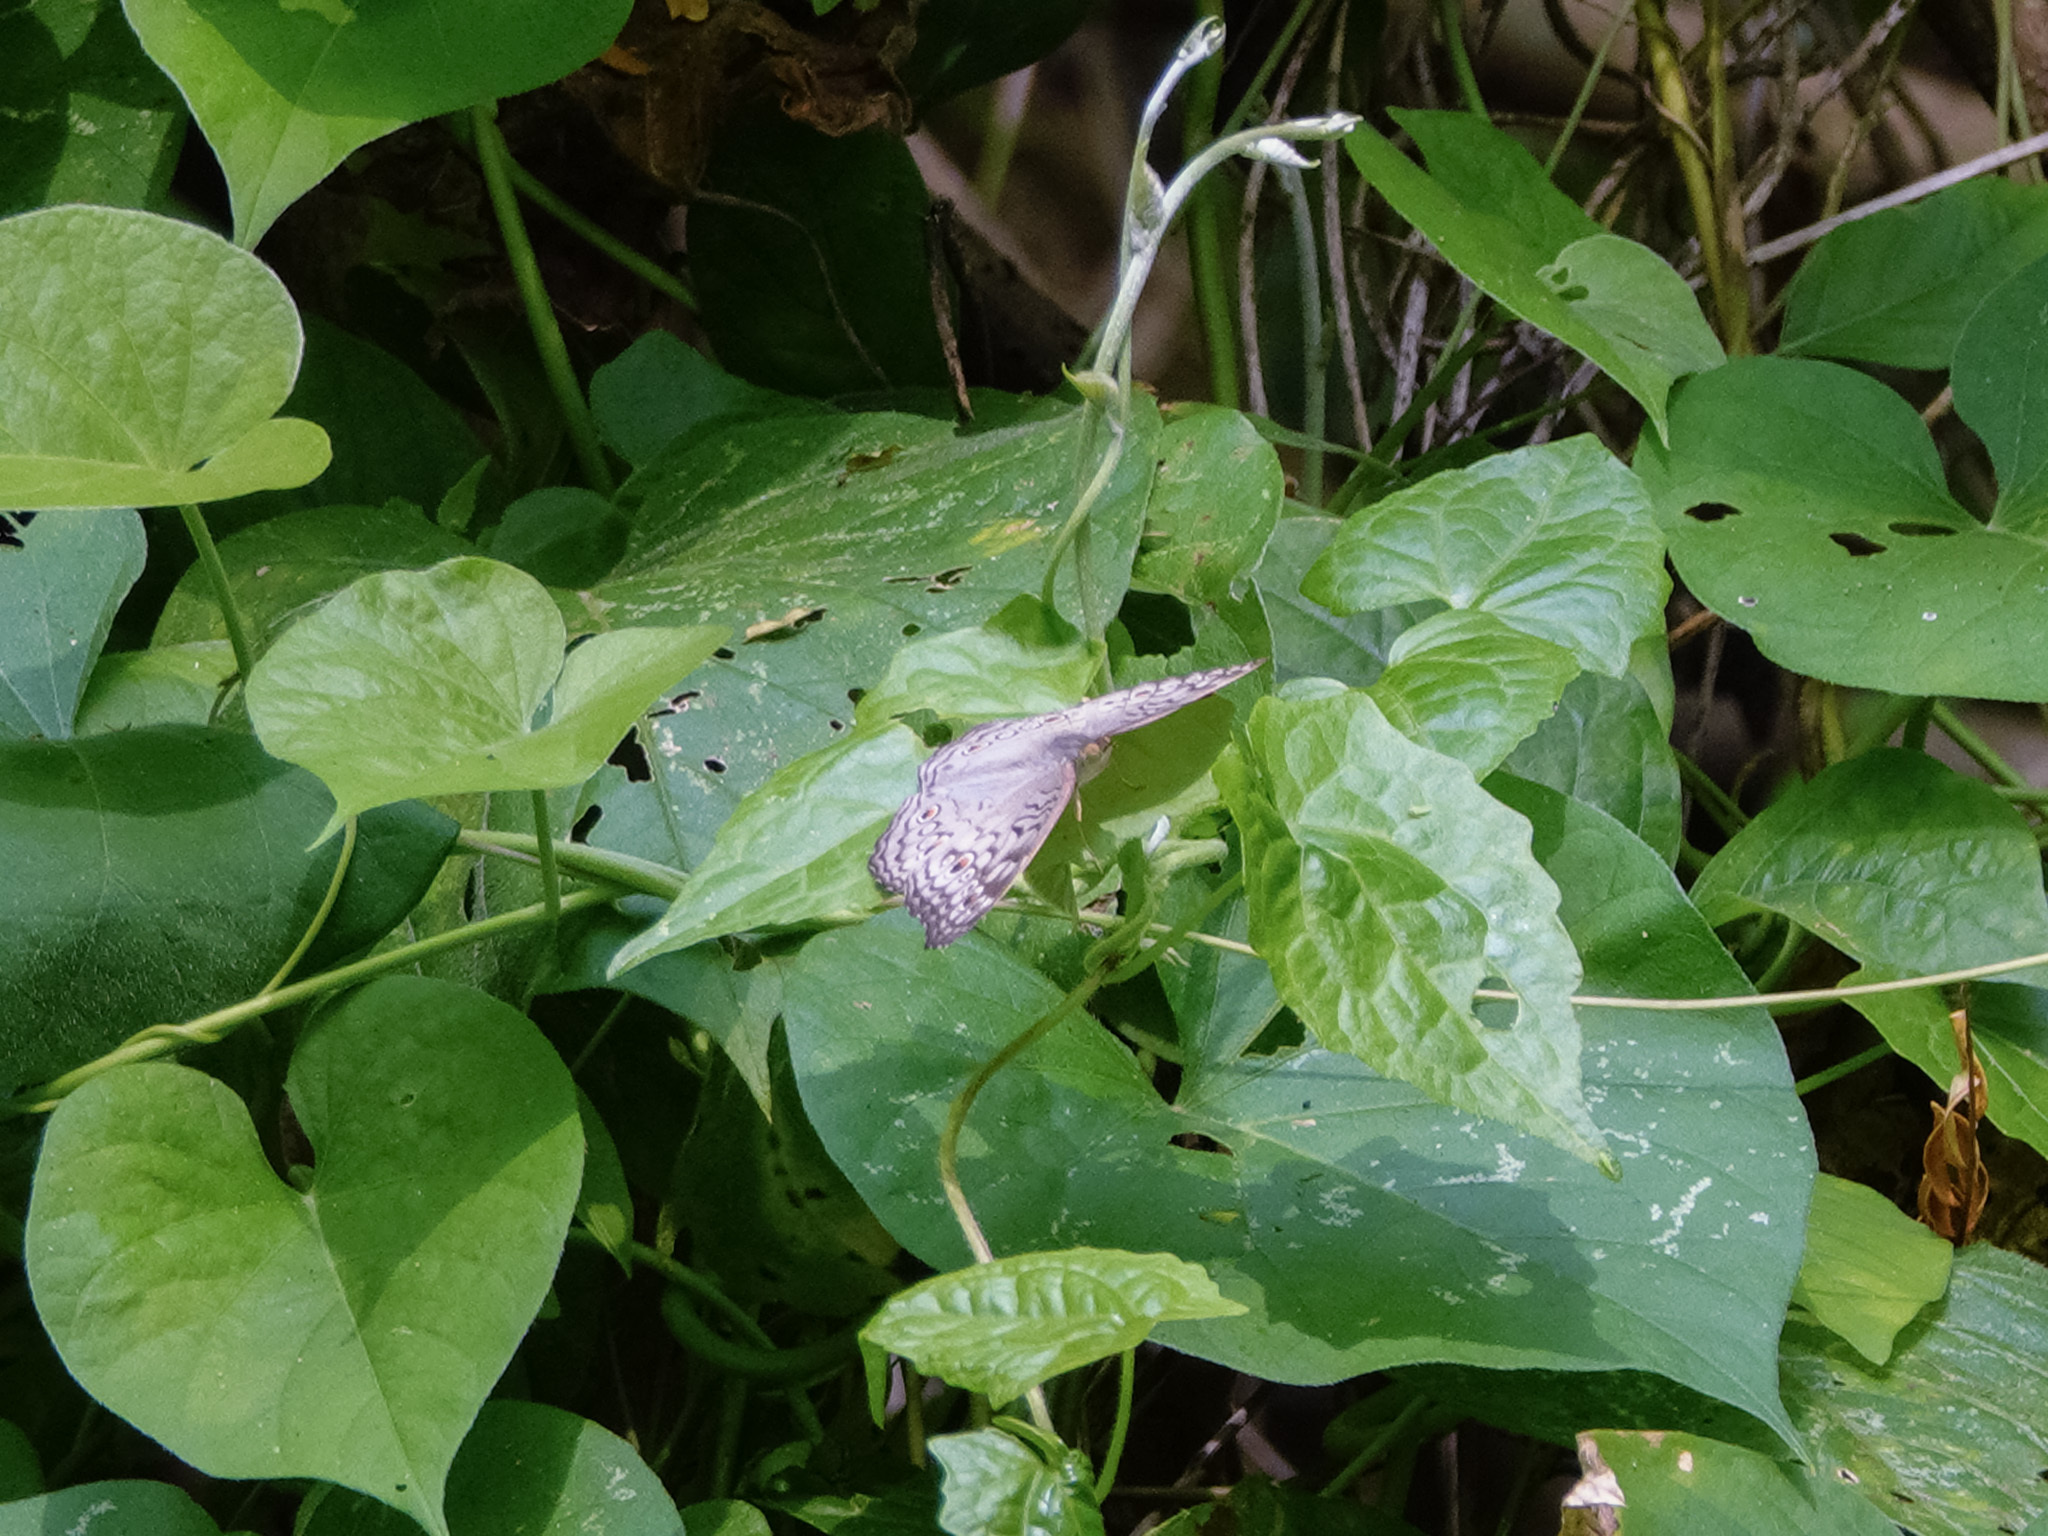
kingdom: Animalia
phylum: Arthropoda
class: Insecta
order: Lepidoptera
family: Nymphalidae
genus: Junonia
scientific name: Junonia atlites
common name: Grey pansy
